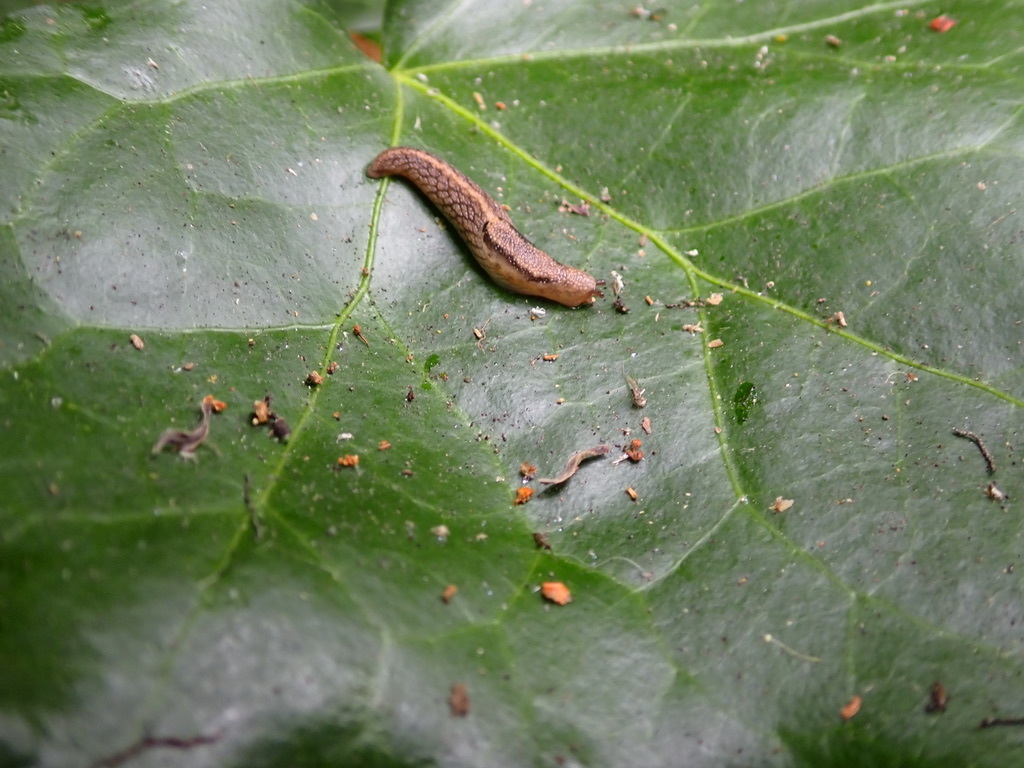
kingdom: Animalia
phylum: Mollusca
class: Gastropoda
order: Stylommatophora
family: Ariolimacidae
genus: Prophysaon
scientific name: Prophysaon andersonii
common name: Reticulate taildropper
